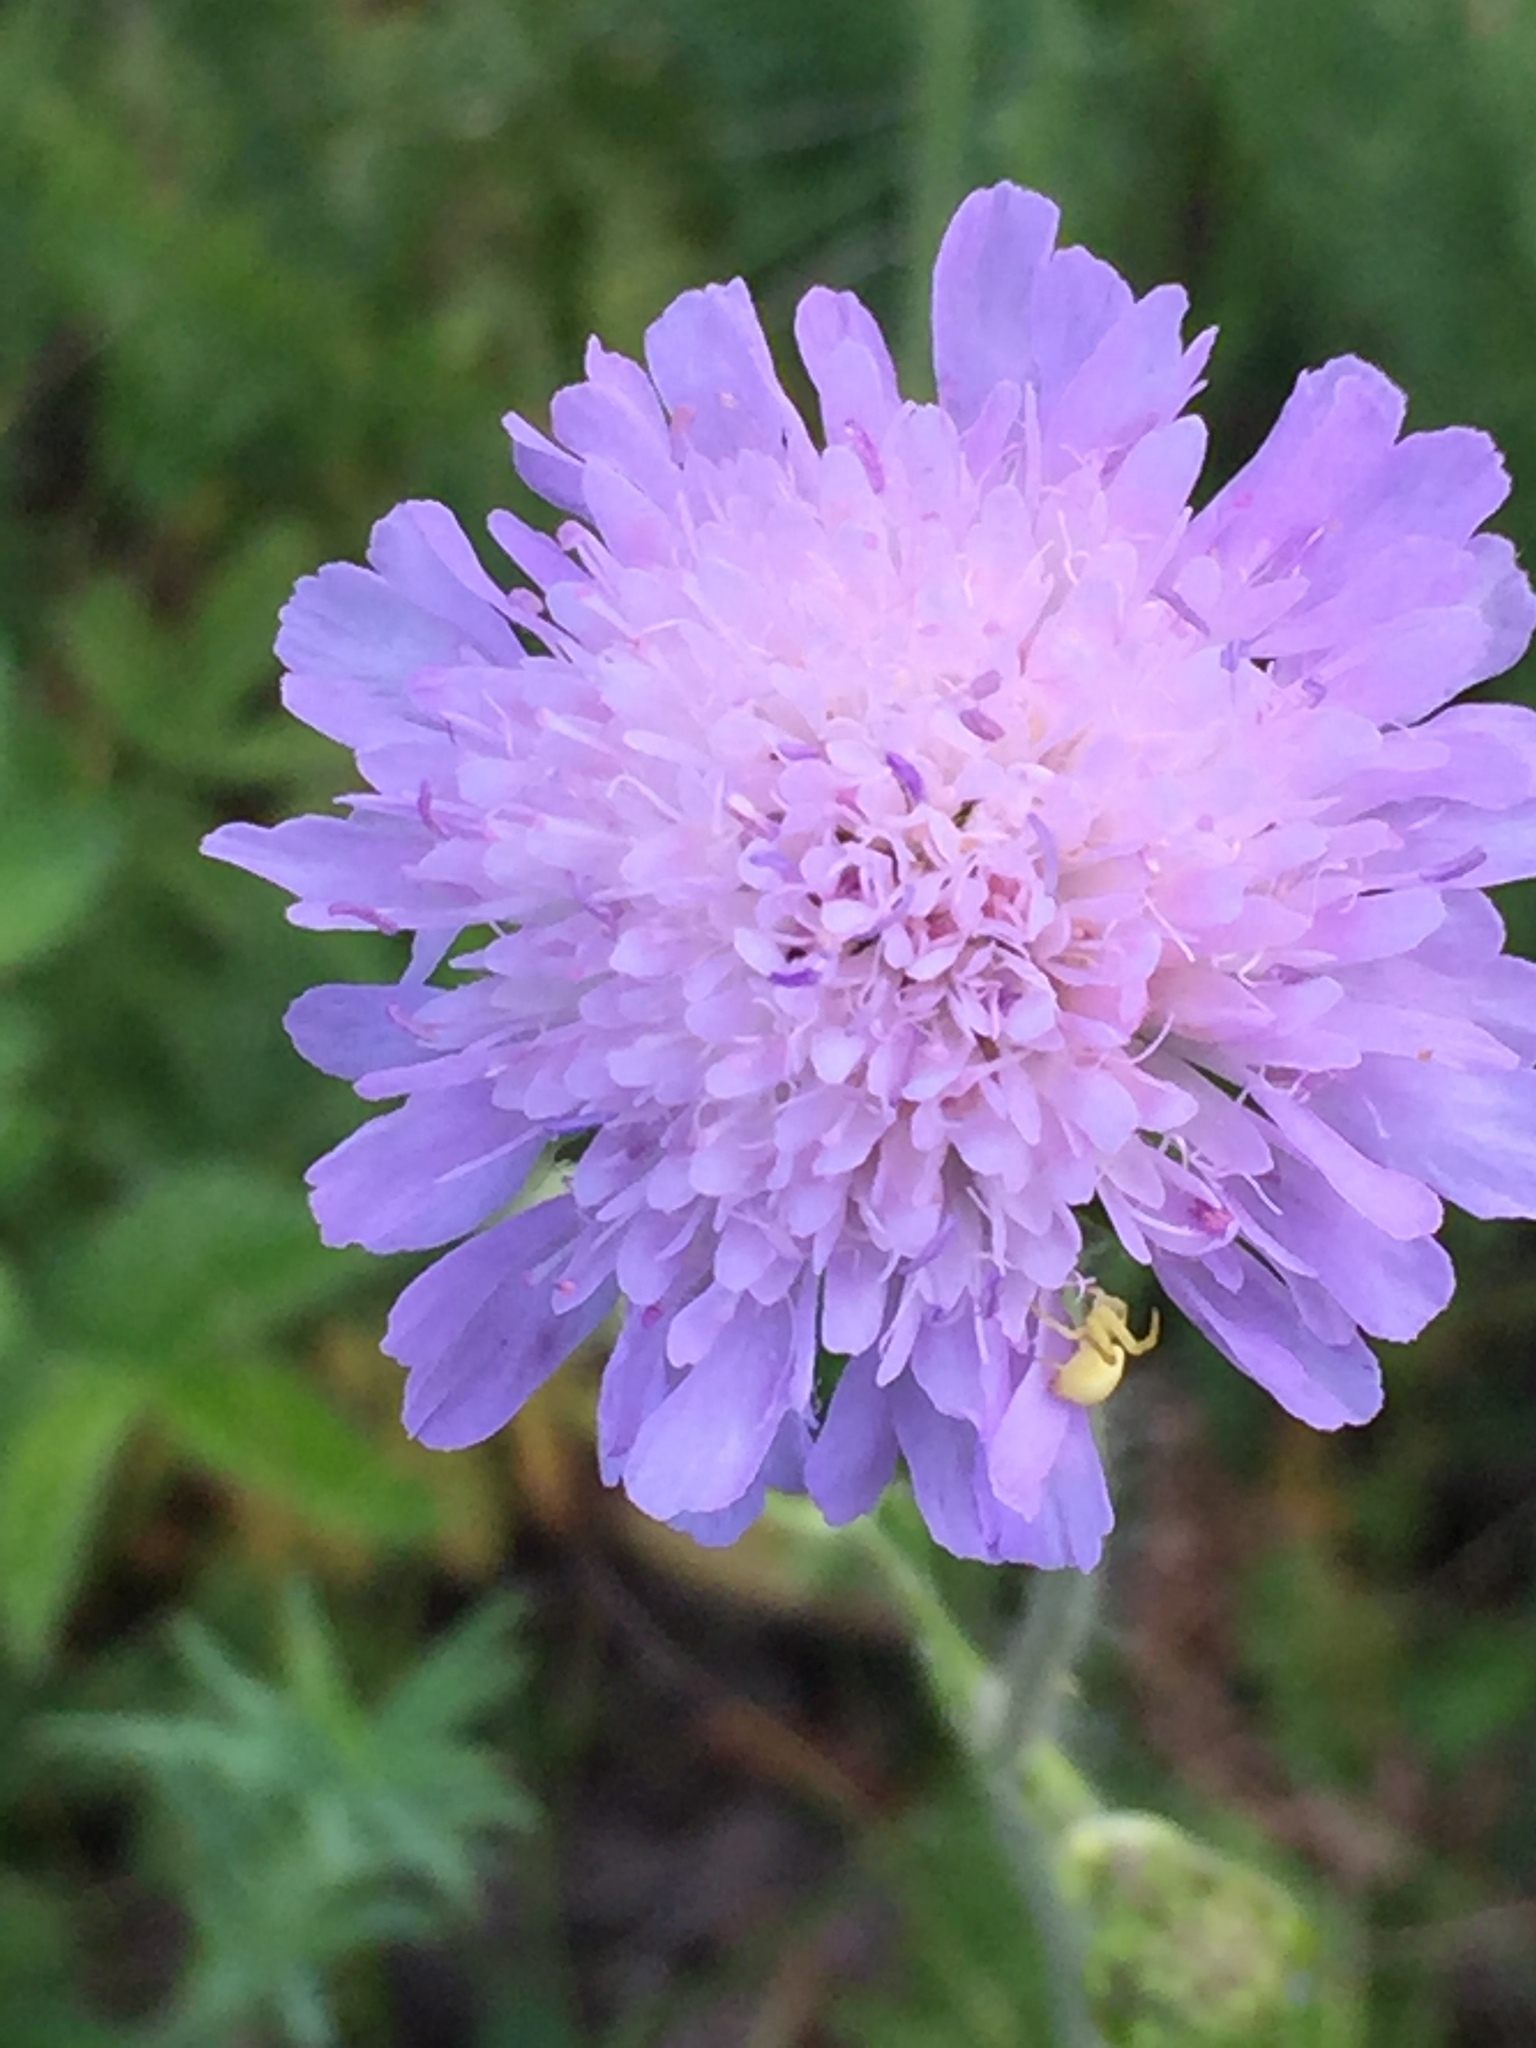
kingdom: Plantae
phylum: Tracheophyta
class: Magnoliopsida
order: Dipsacales
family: Caprifoliaceae
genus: Knautia
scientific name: Knautia arvensis
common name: Field scabiosa
